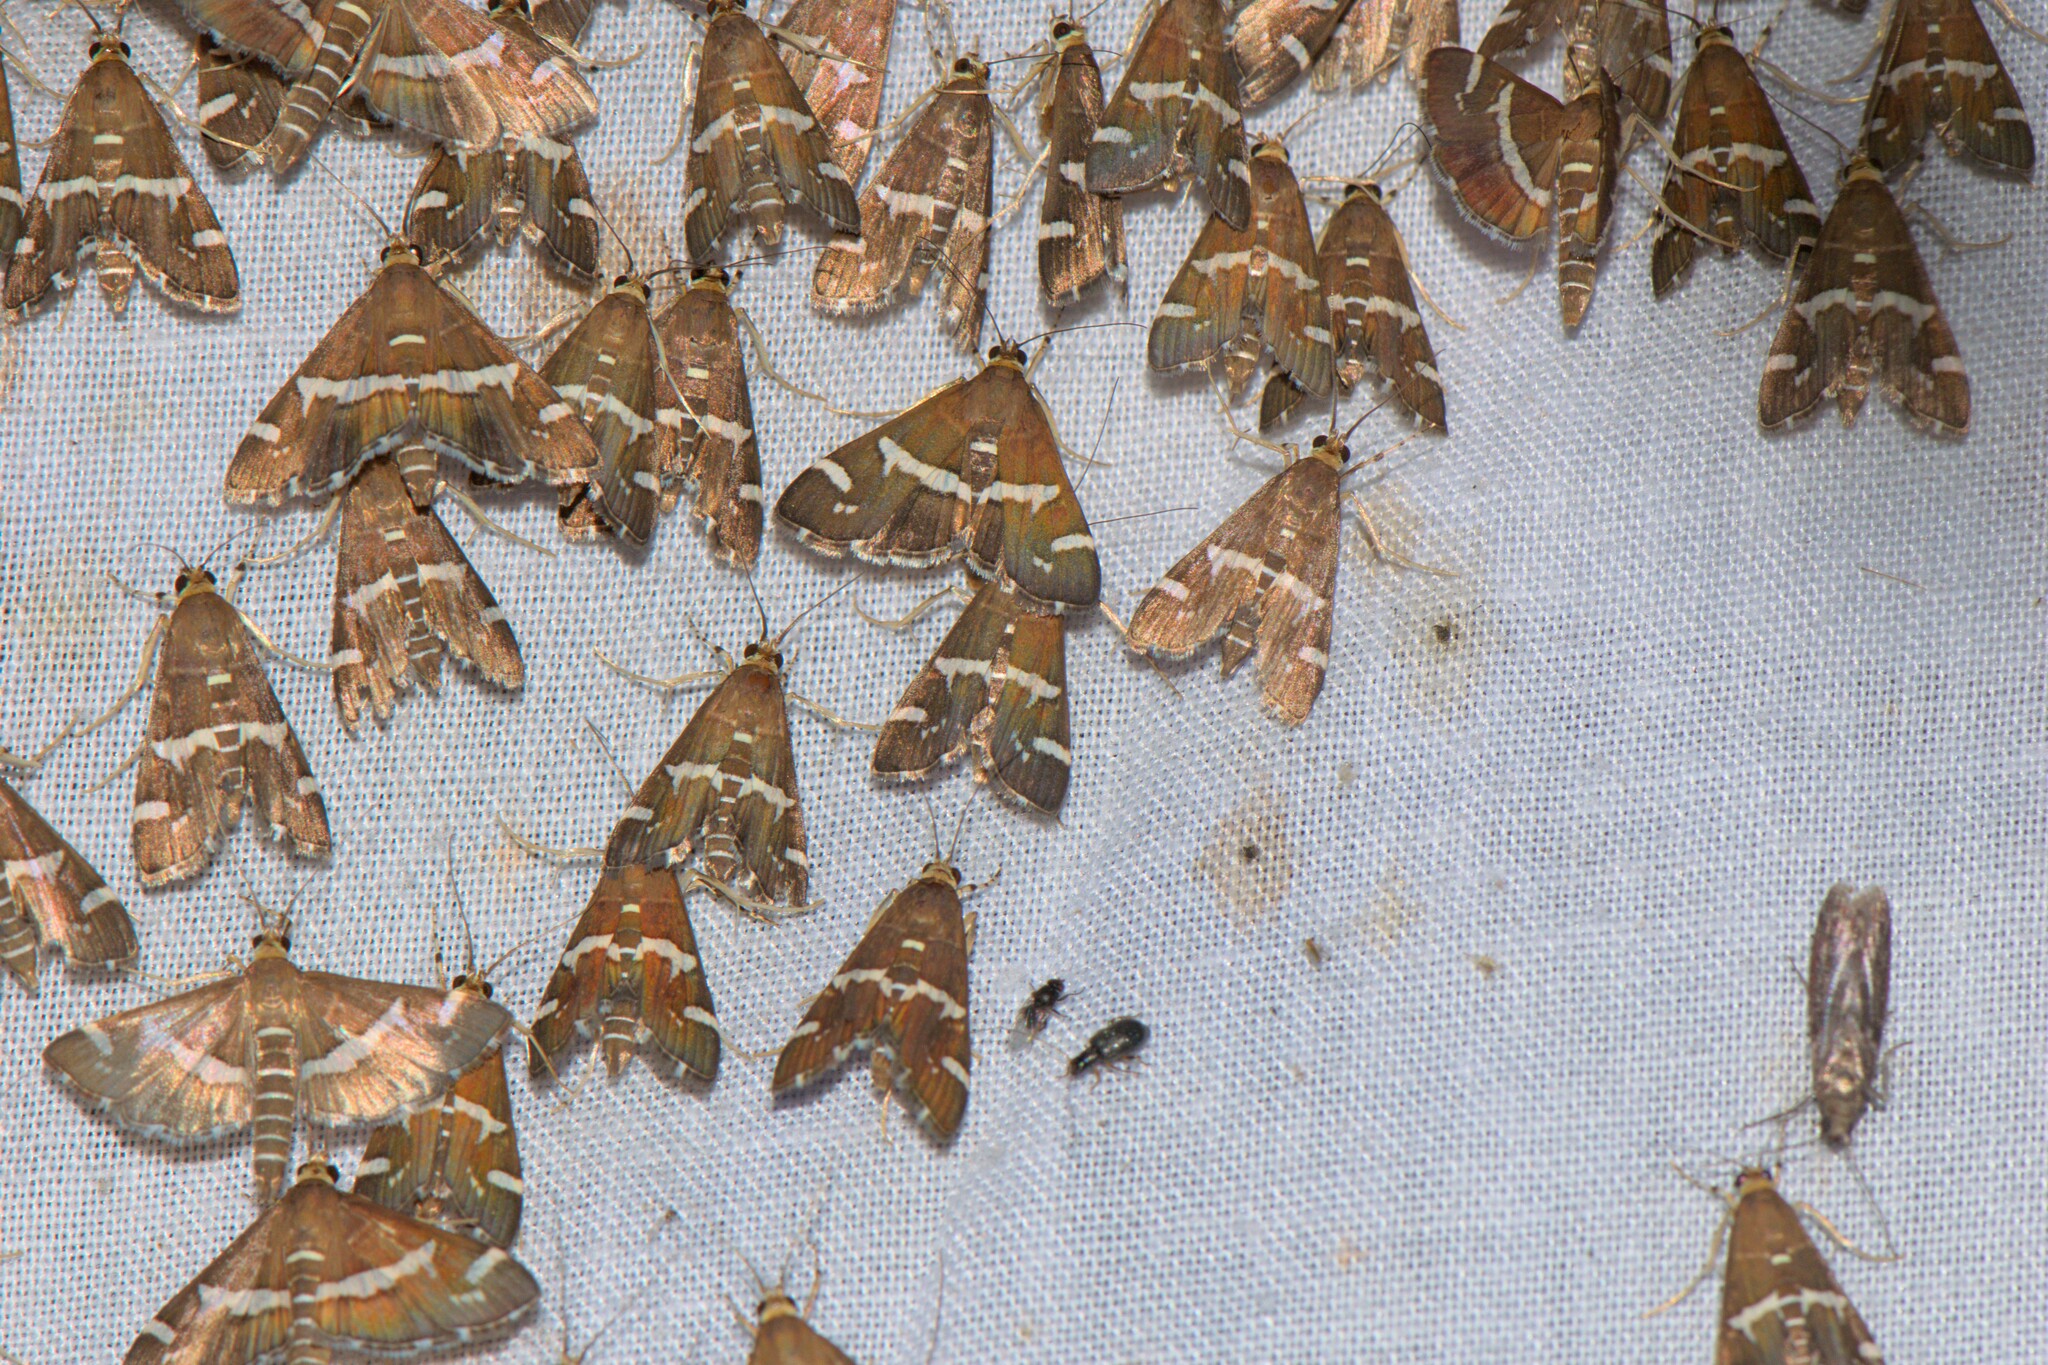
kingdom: Animalia
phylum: Arthropoda
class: Insecta
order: Lepidoptera
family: Crambidae
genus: Spoladea
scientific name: Spoladea recurvalis
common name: Beet webworm moth
